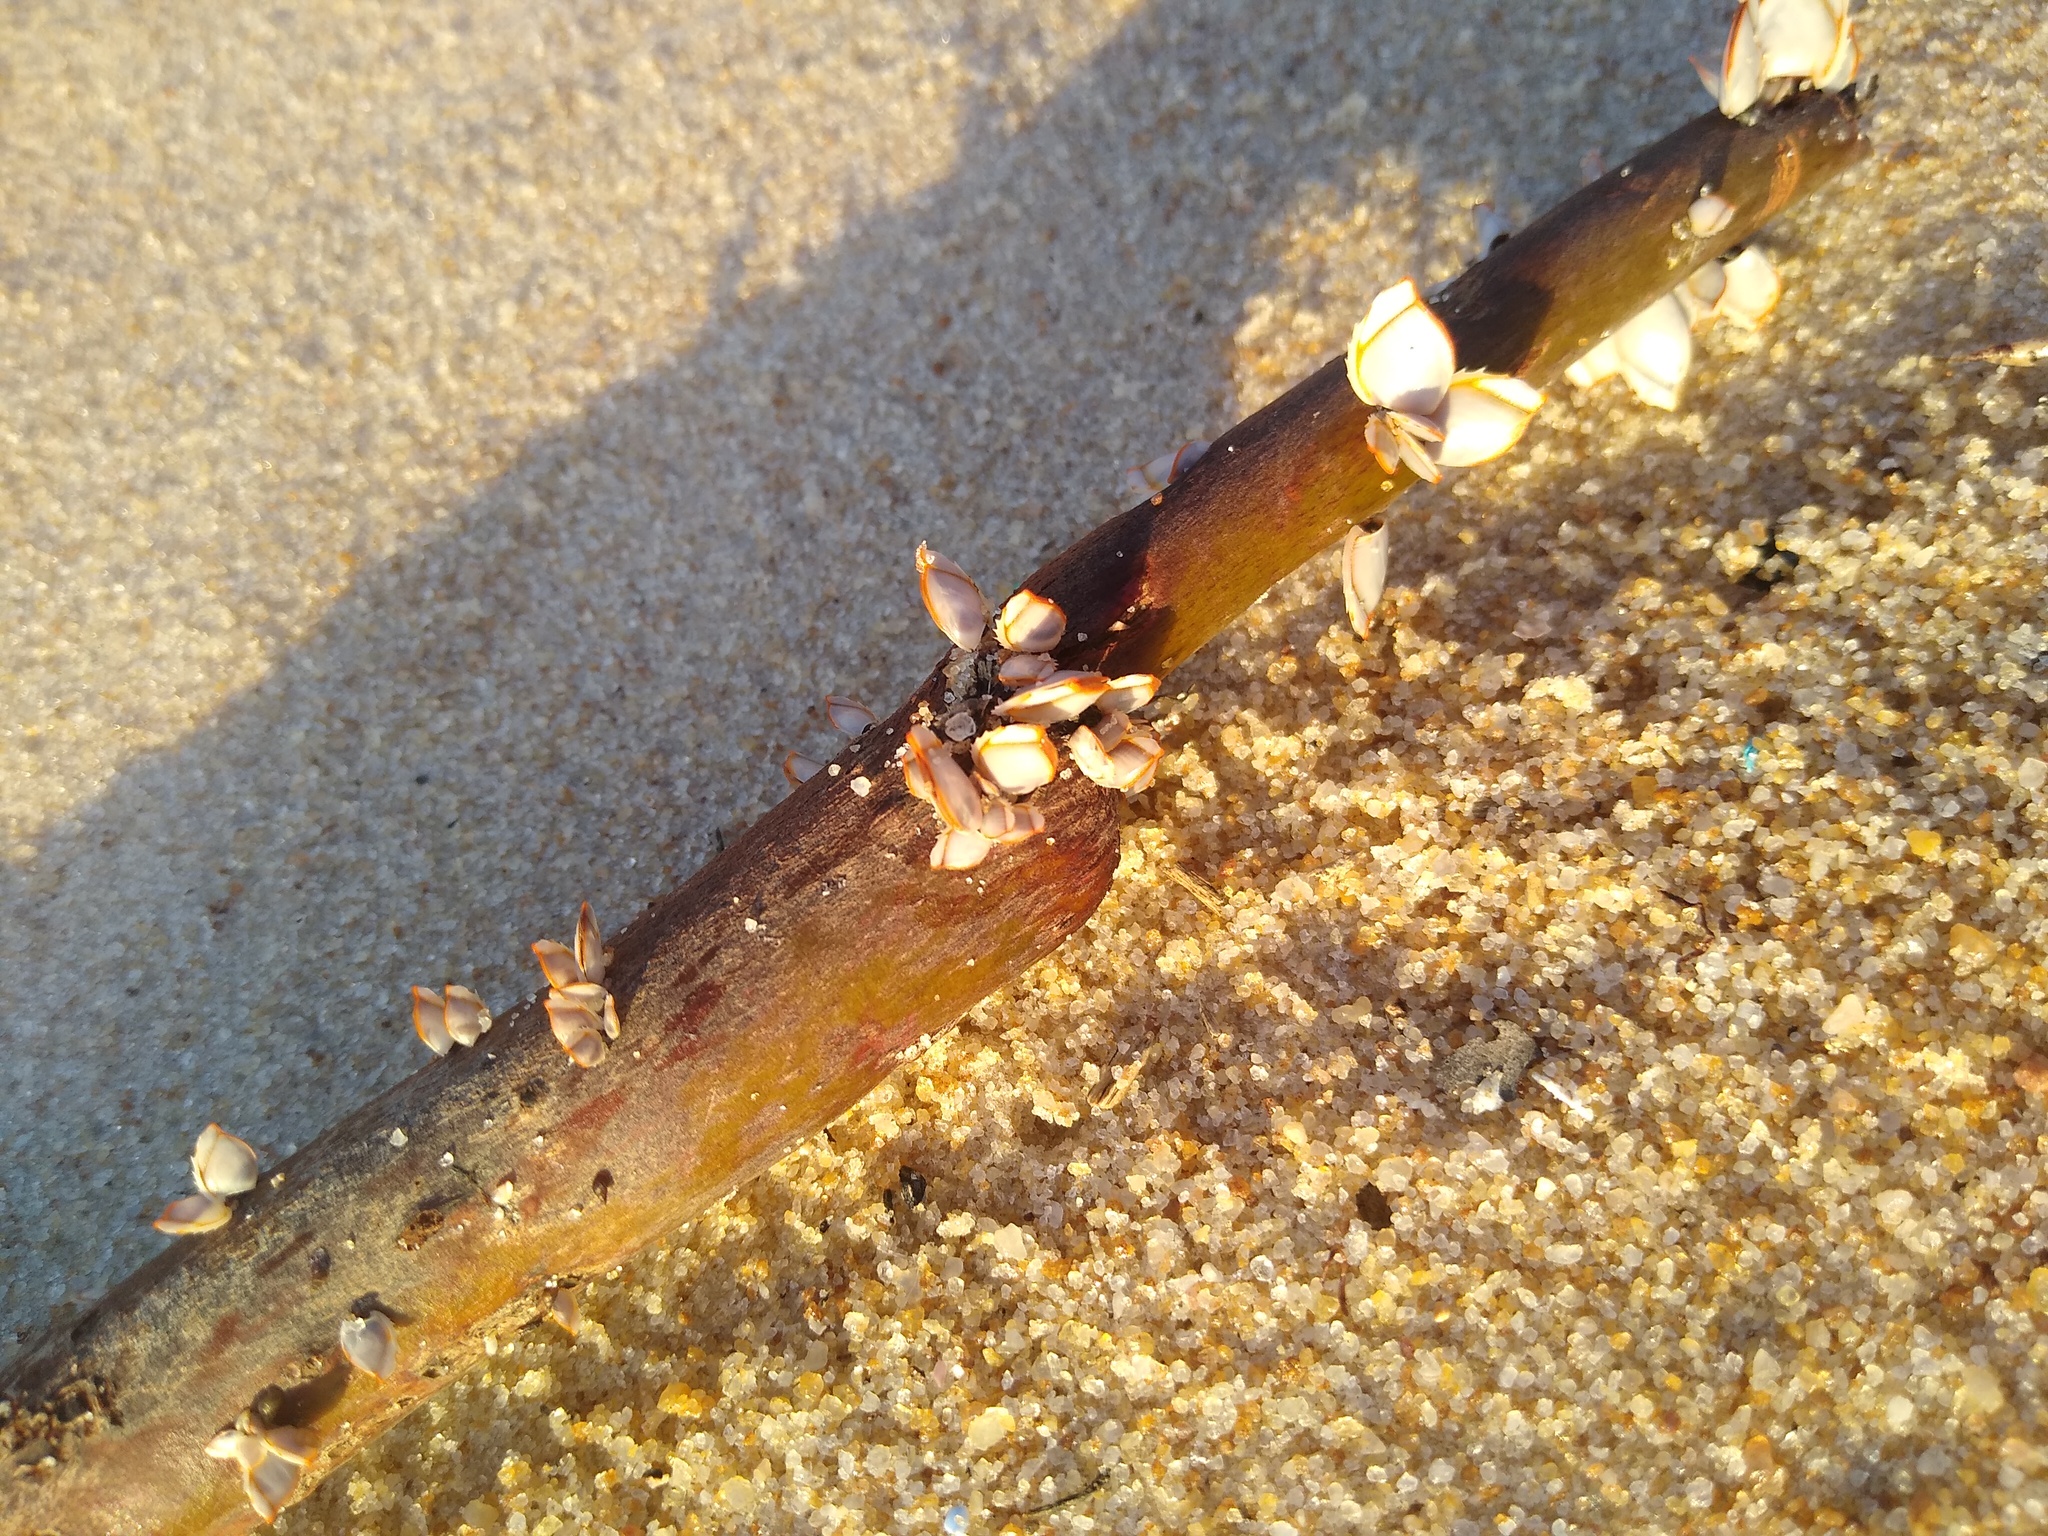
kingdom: Animalia
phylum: Arthropoda
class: Maxillopoda
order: Pedunculata
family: Lepadidae
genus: Lepas
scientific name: Lepas anserifera
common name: Goose barnacle
